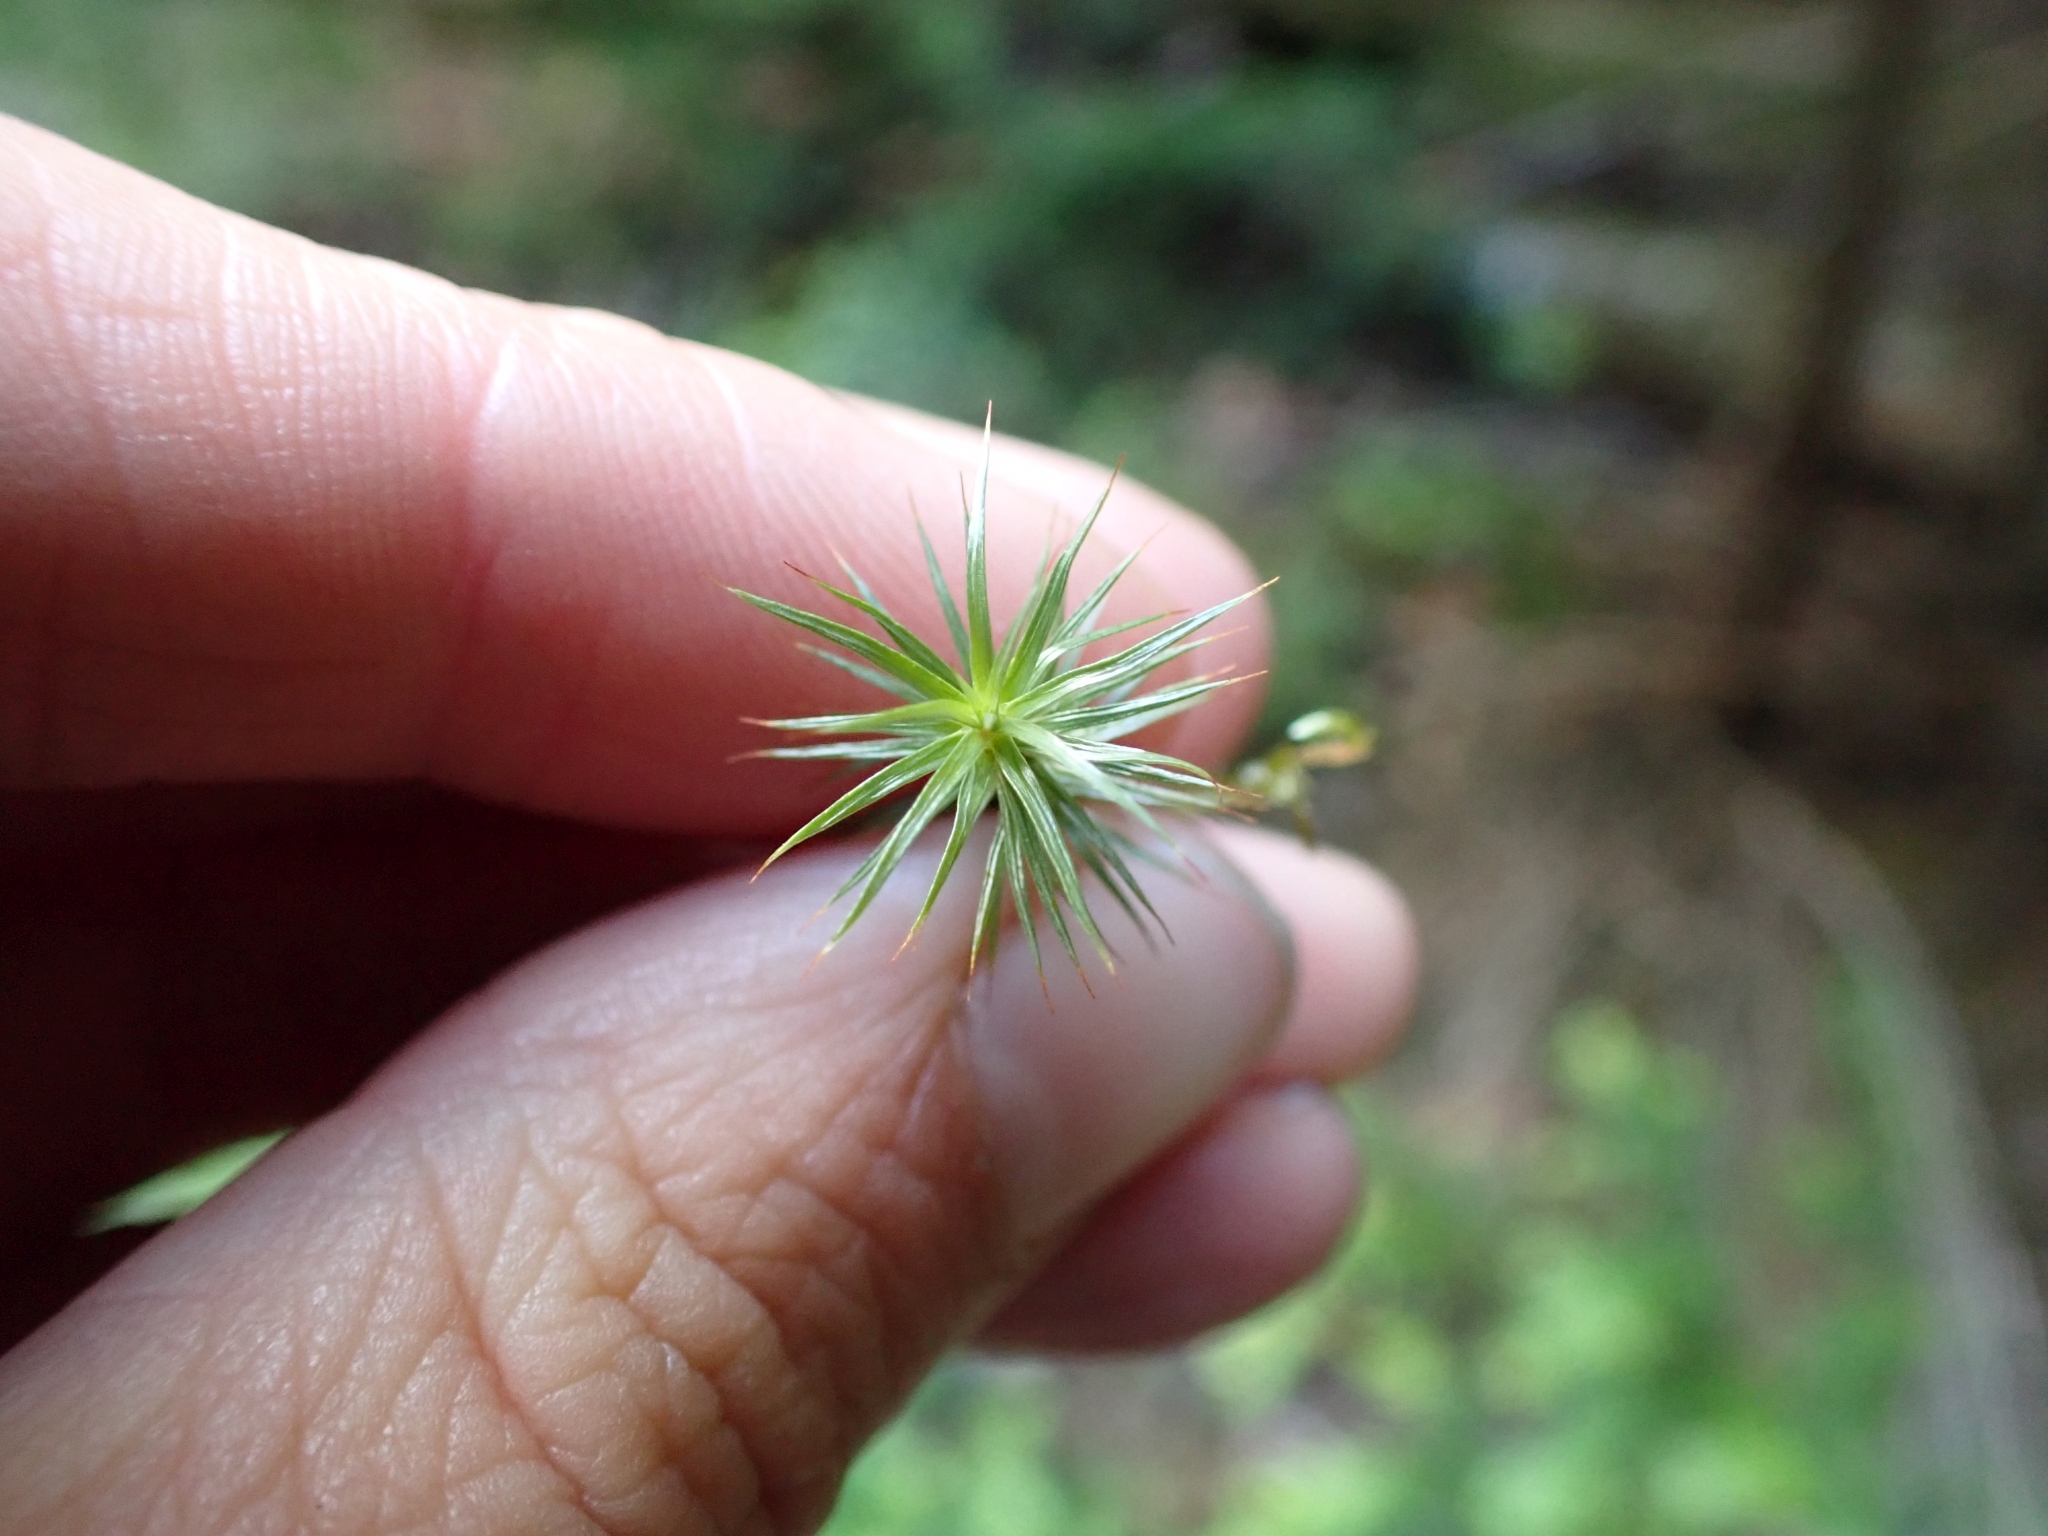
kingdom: Plantae
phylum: Bryophyta
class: Polytrichopsida
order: Polytrichales
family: Polytrichaceae
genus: Polytrichum
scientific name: Polytrichum juniperinum
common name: Juniper haircap moss
